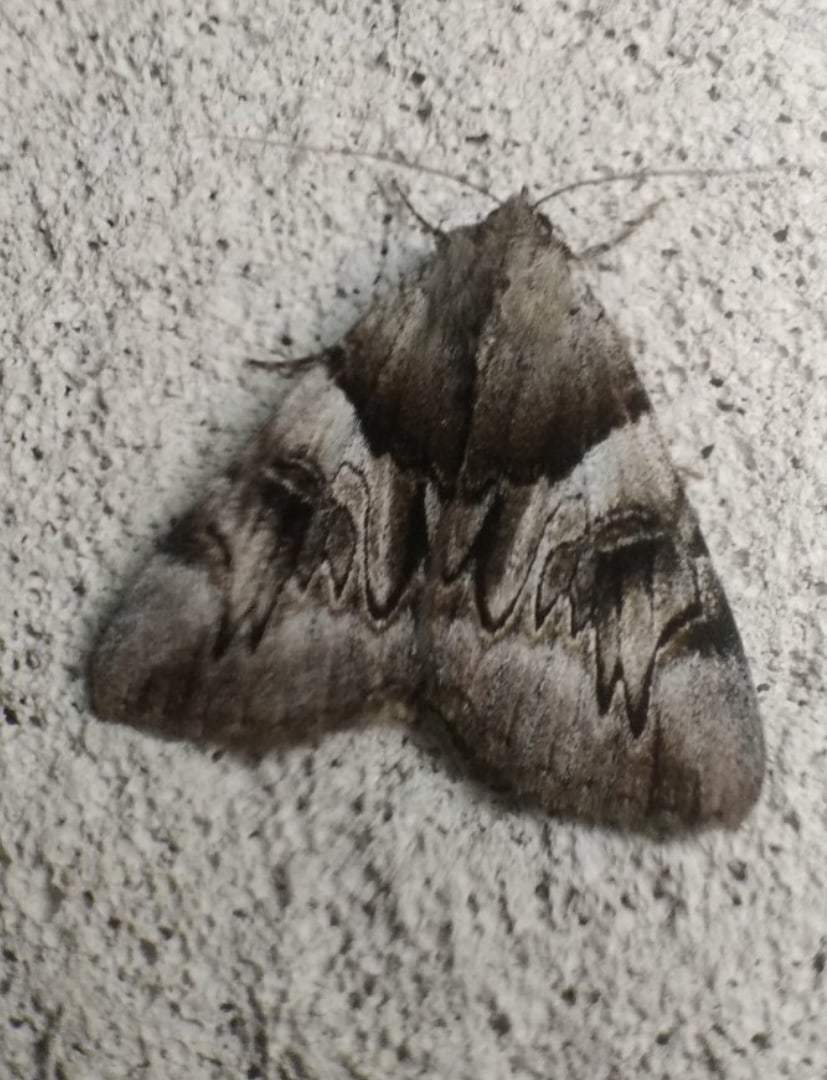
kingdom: Animalia
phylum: Arthropoda
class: Insecta
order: Lepidoptera
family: Erebidae
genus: Catocala
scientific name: Catocala fulminea
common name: Yellow bands underwing
